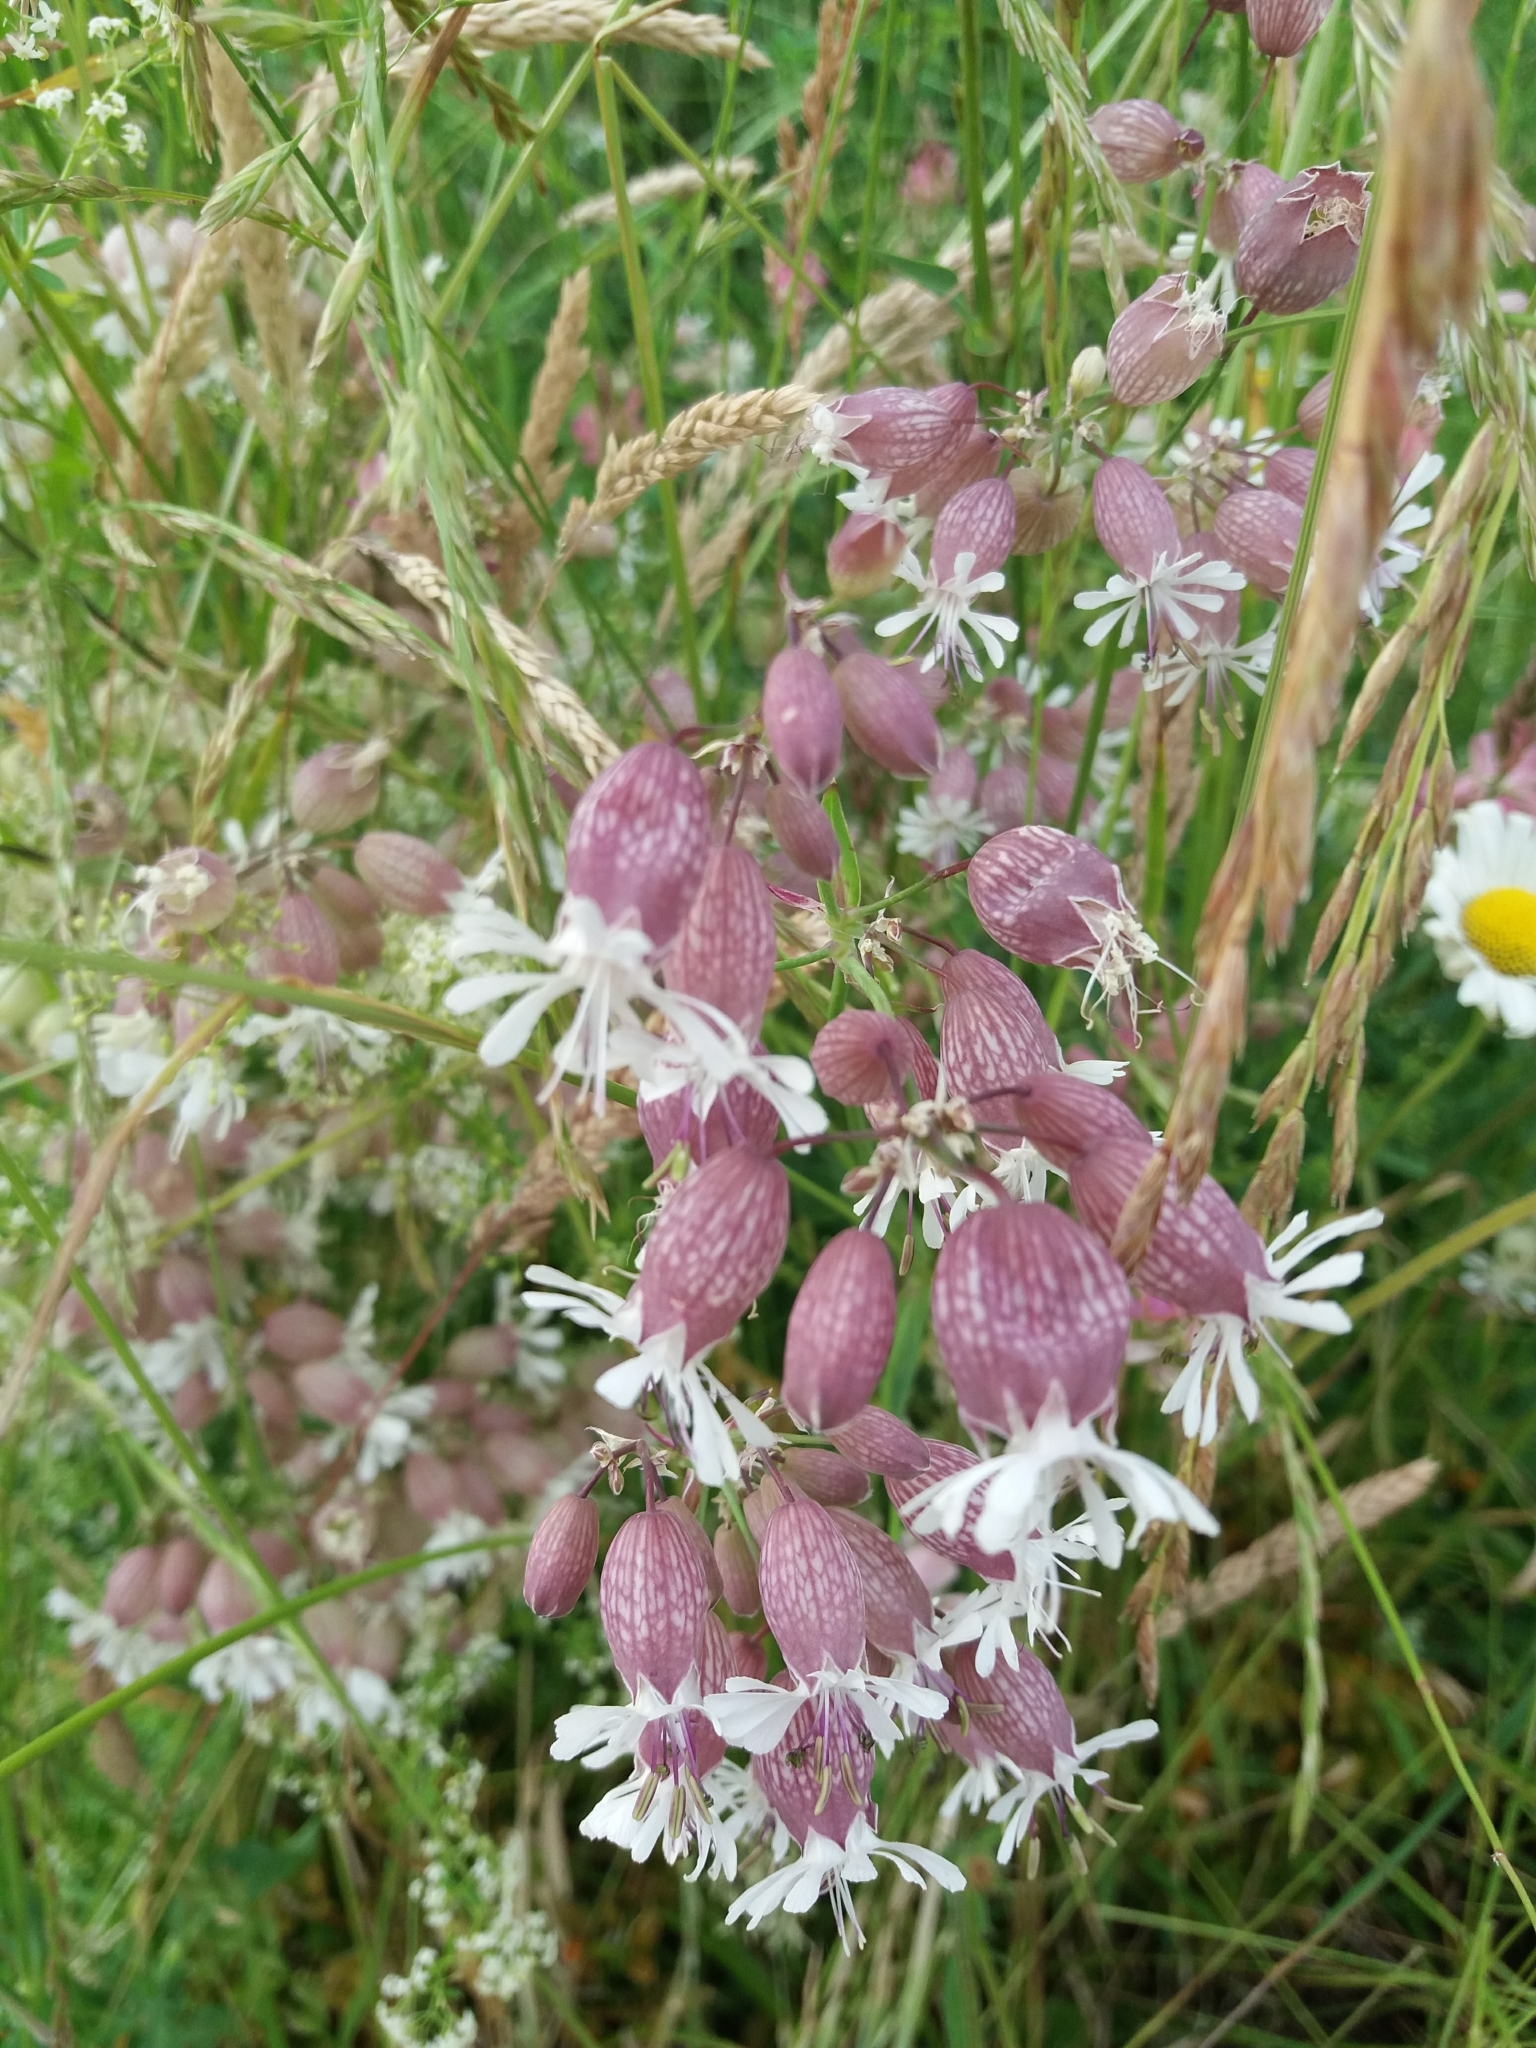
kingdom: Plantae
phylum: Tracheophyta
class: Magnoliopsida
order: Caryophyllales
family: Caryophyllaceae
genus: Silene
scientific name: Silene vulgaris
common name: Bladder campion
